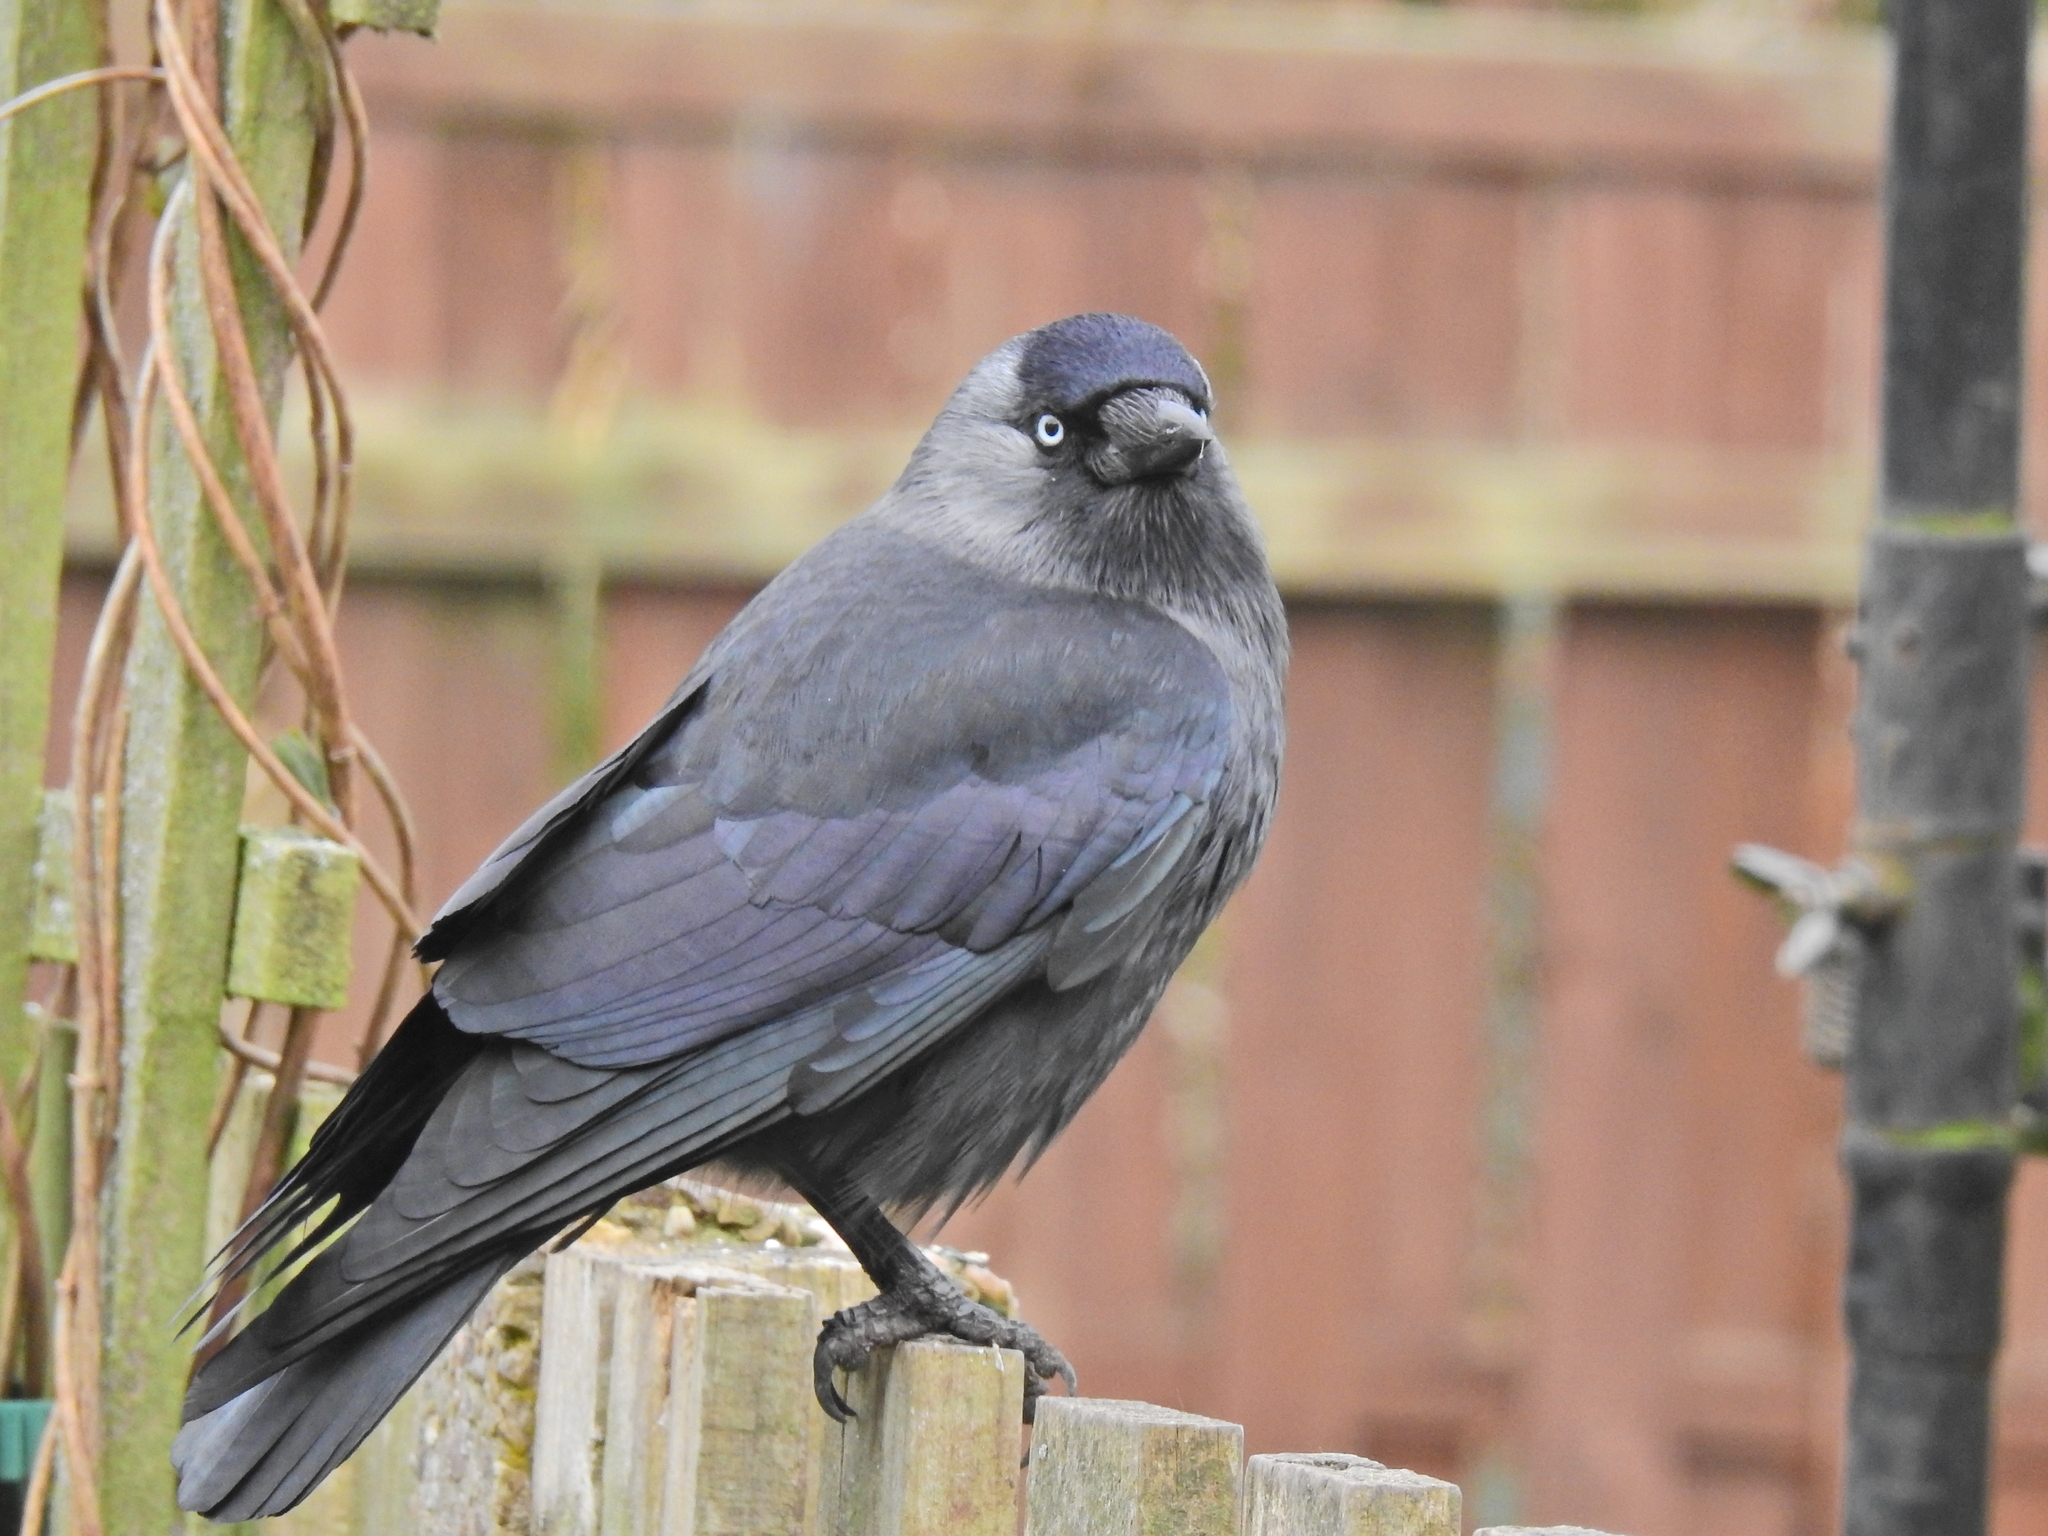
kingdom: Animalia
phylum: Chordata
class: Aves
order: Passeriformes
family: Corvidae
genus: Coloeus
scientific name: Coloeus monedula
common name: Western jackdaw
